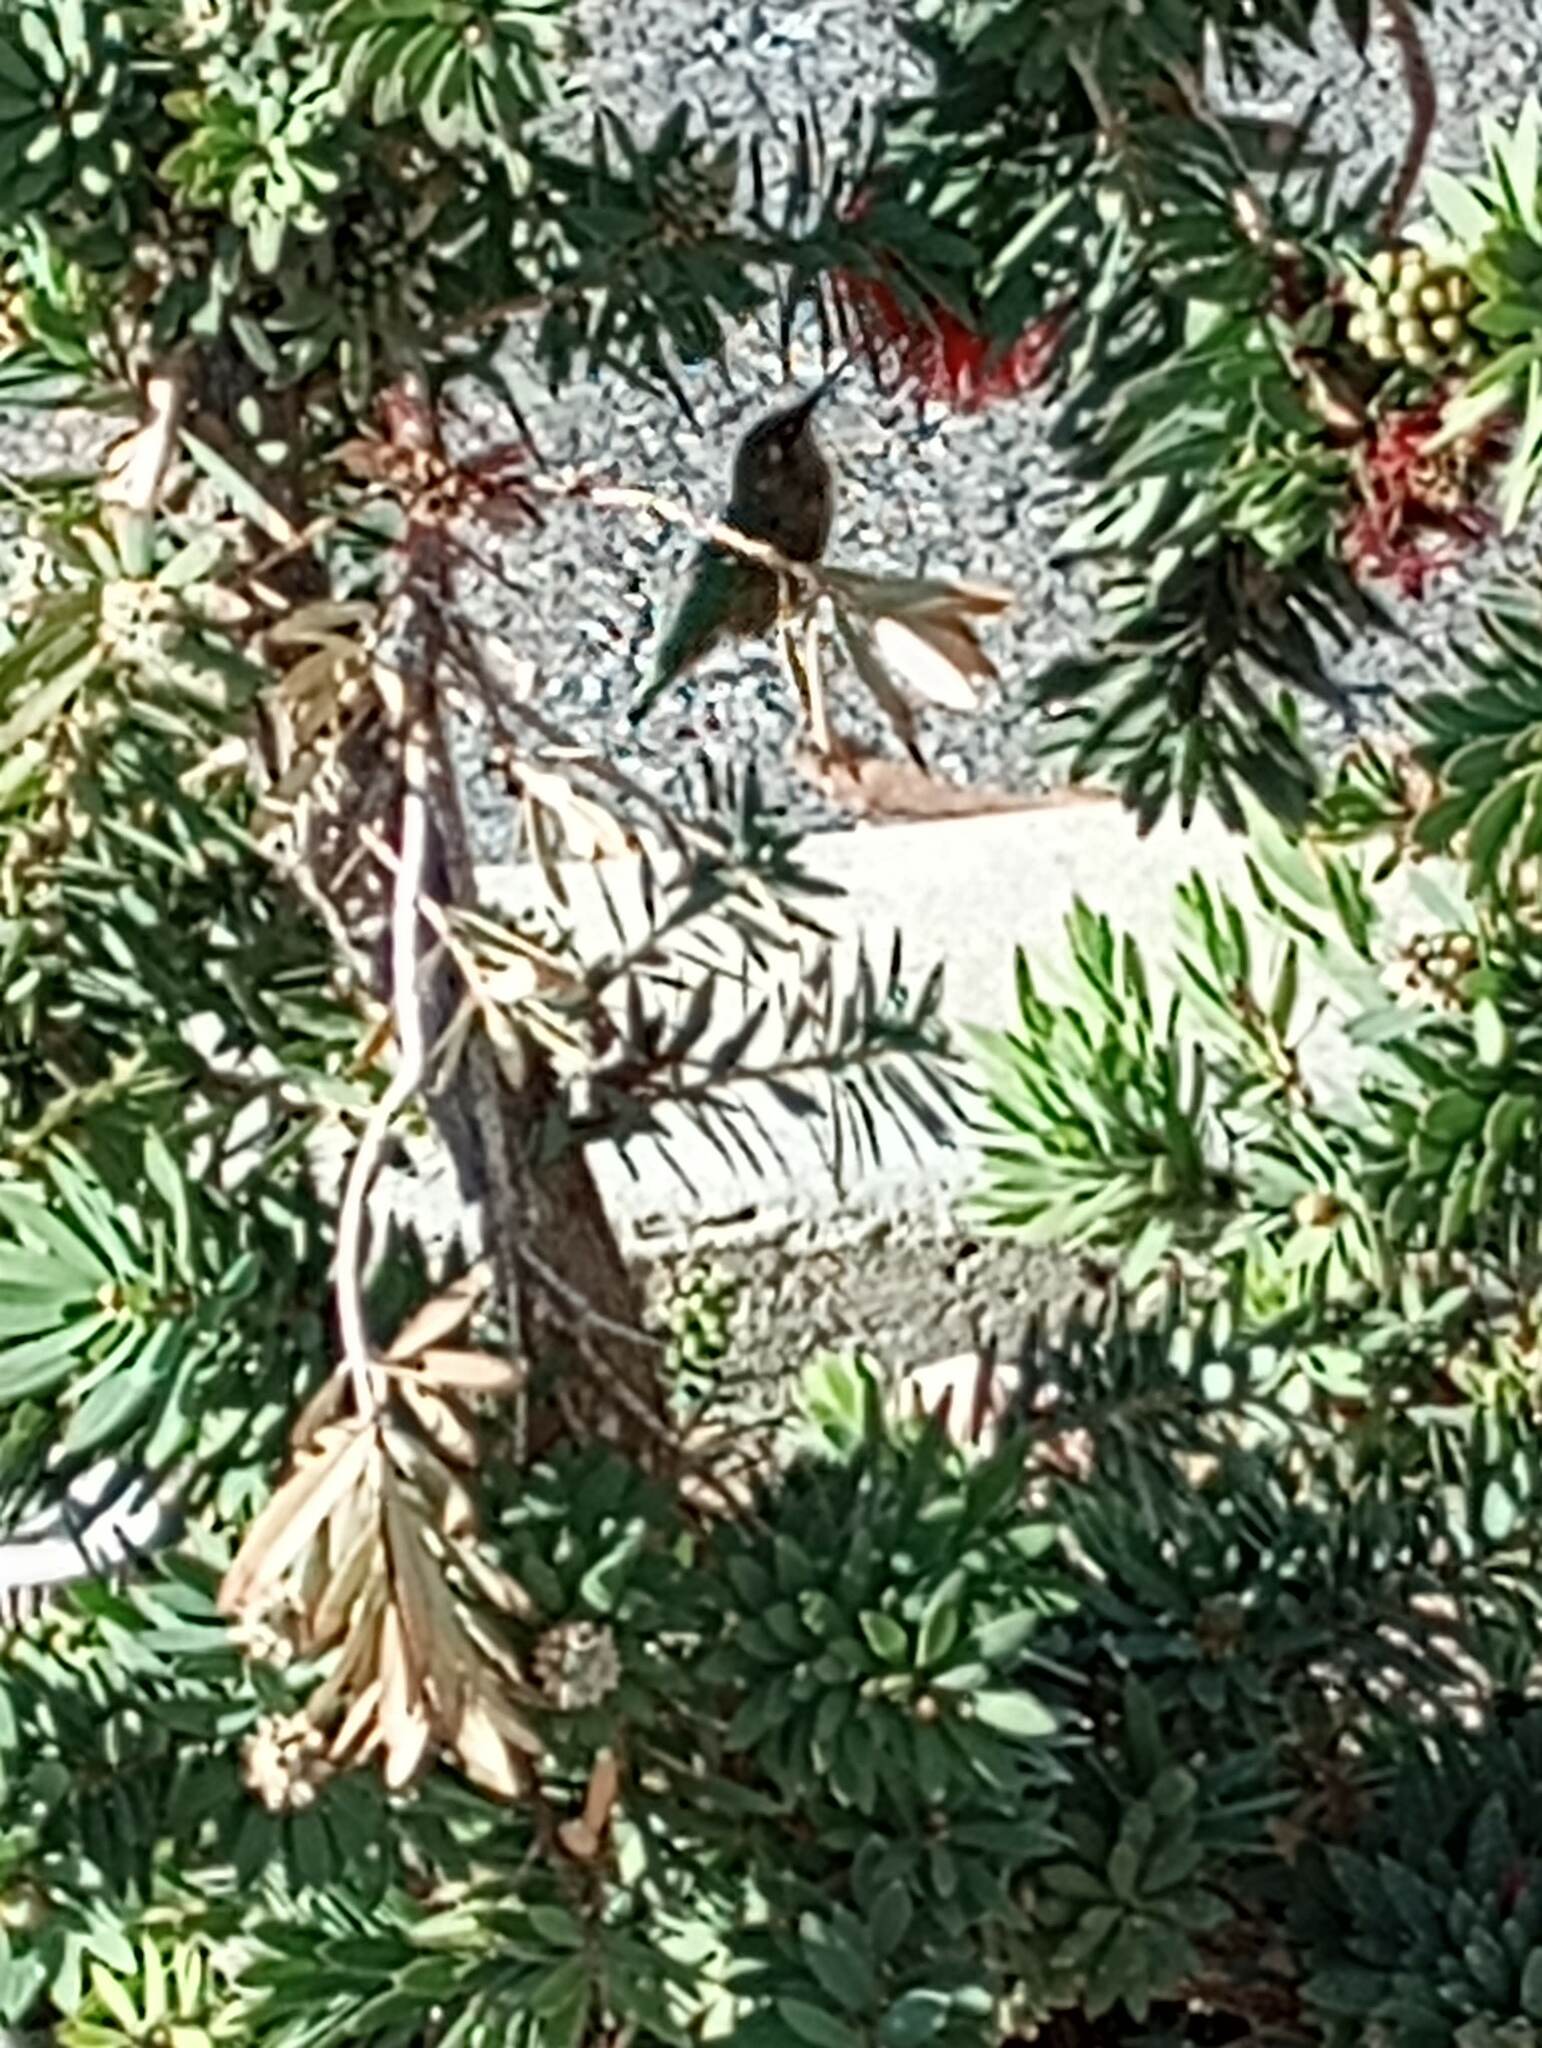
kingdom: Animalia
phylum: Chordata
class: Aves
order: Apodiformes
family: Trochilidae
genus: Calypte
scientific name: Calypte
